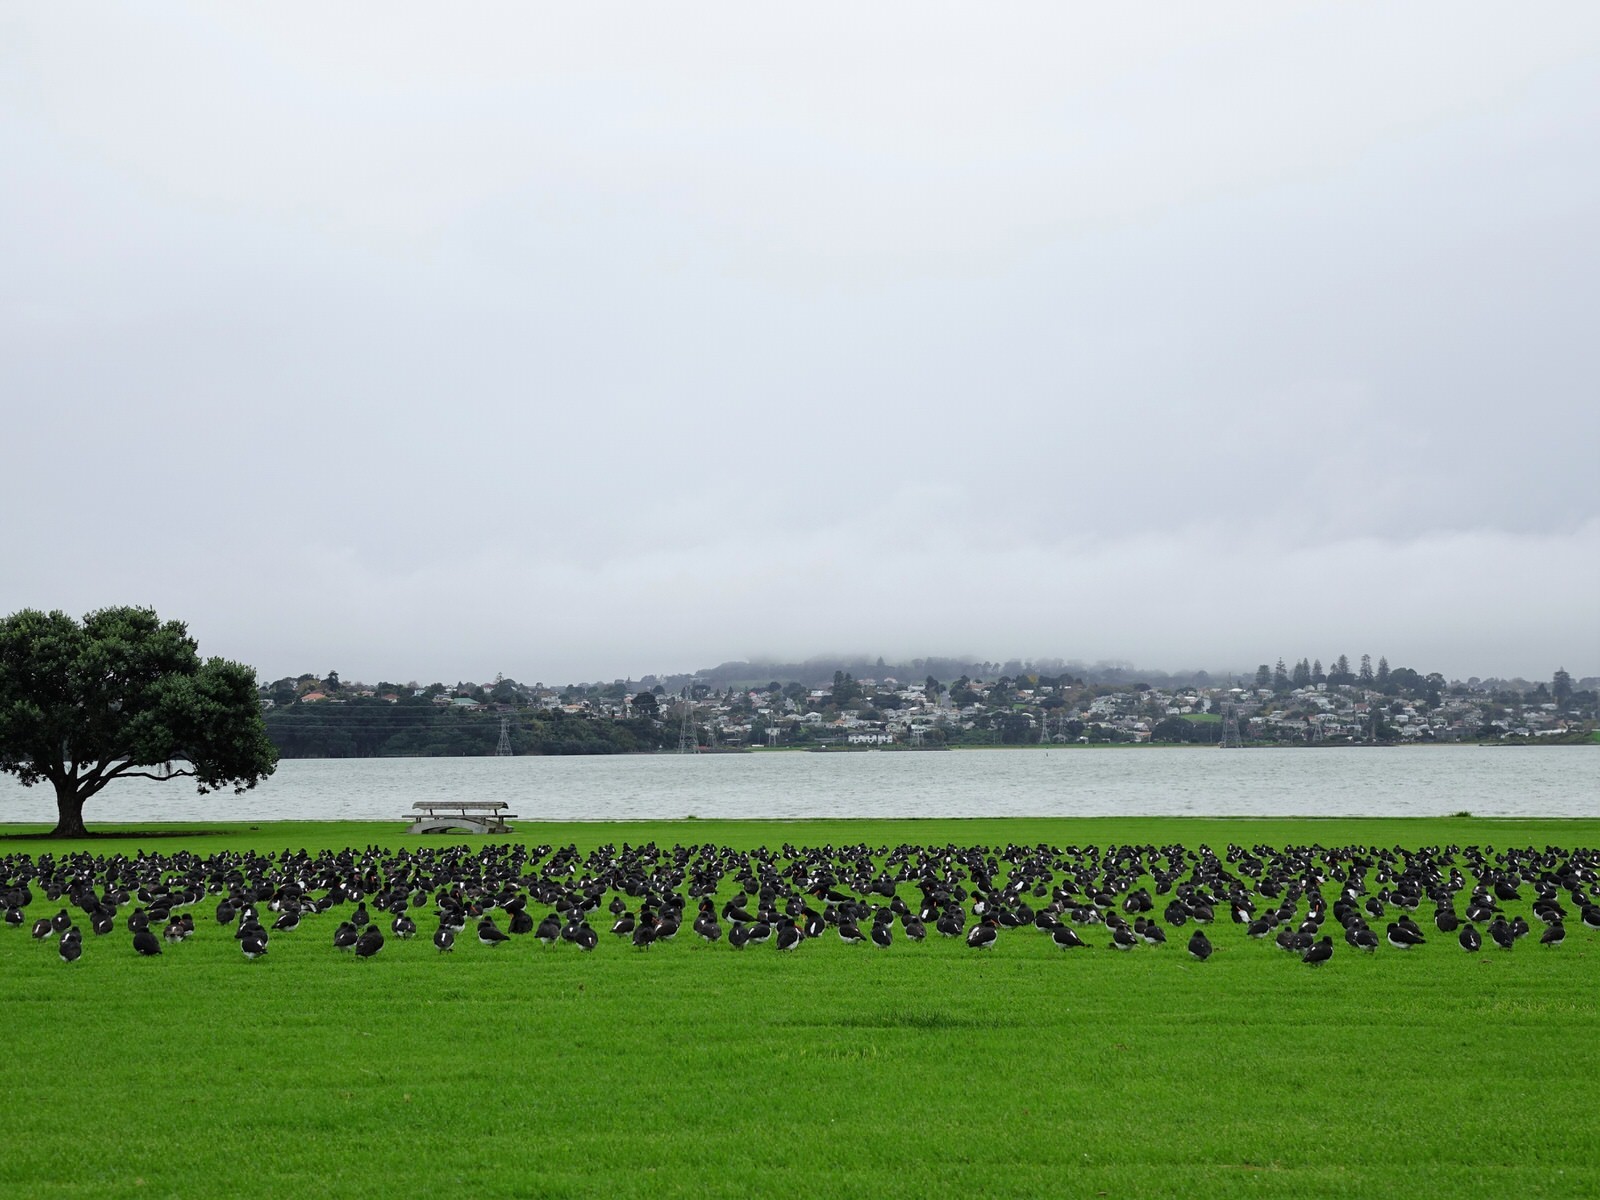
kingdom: Animalia
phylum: Chordata
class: Aves
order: Charadriiformes
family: Haematopodidae
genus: Haematopus
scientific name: Haematopus finschi
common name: South island oystercatcher
